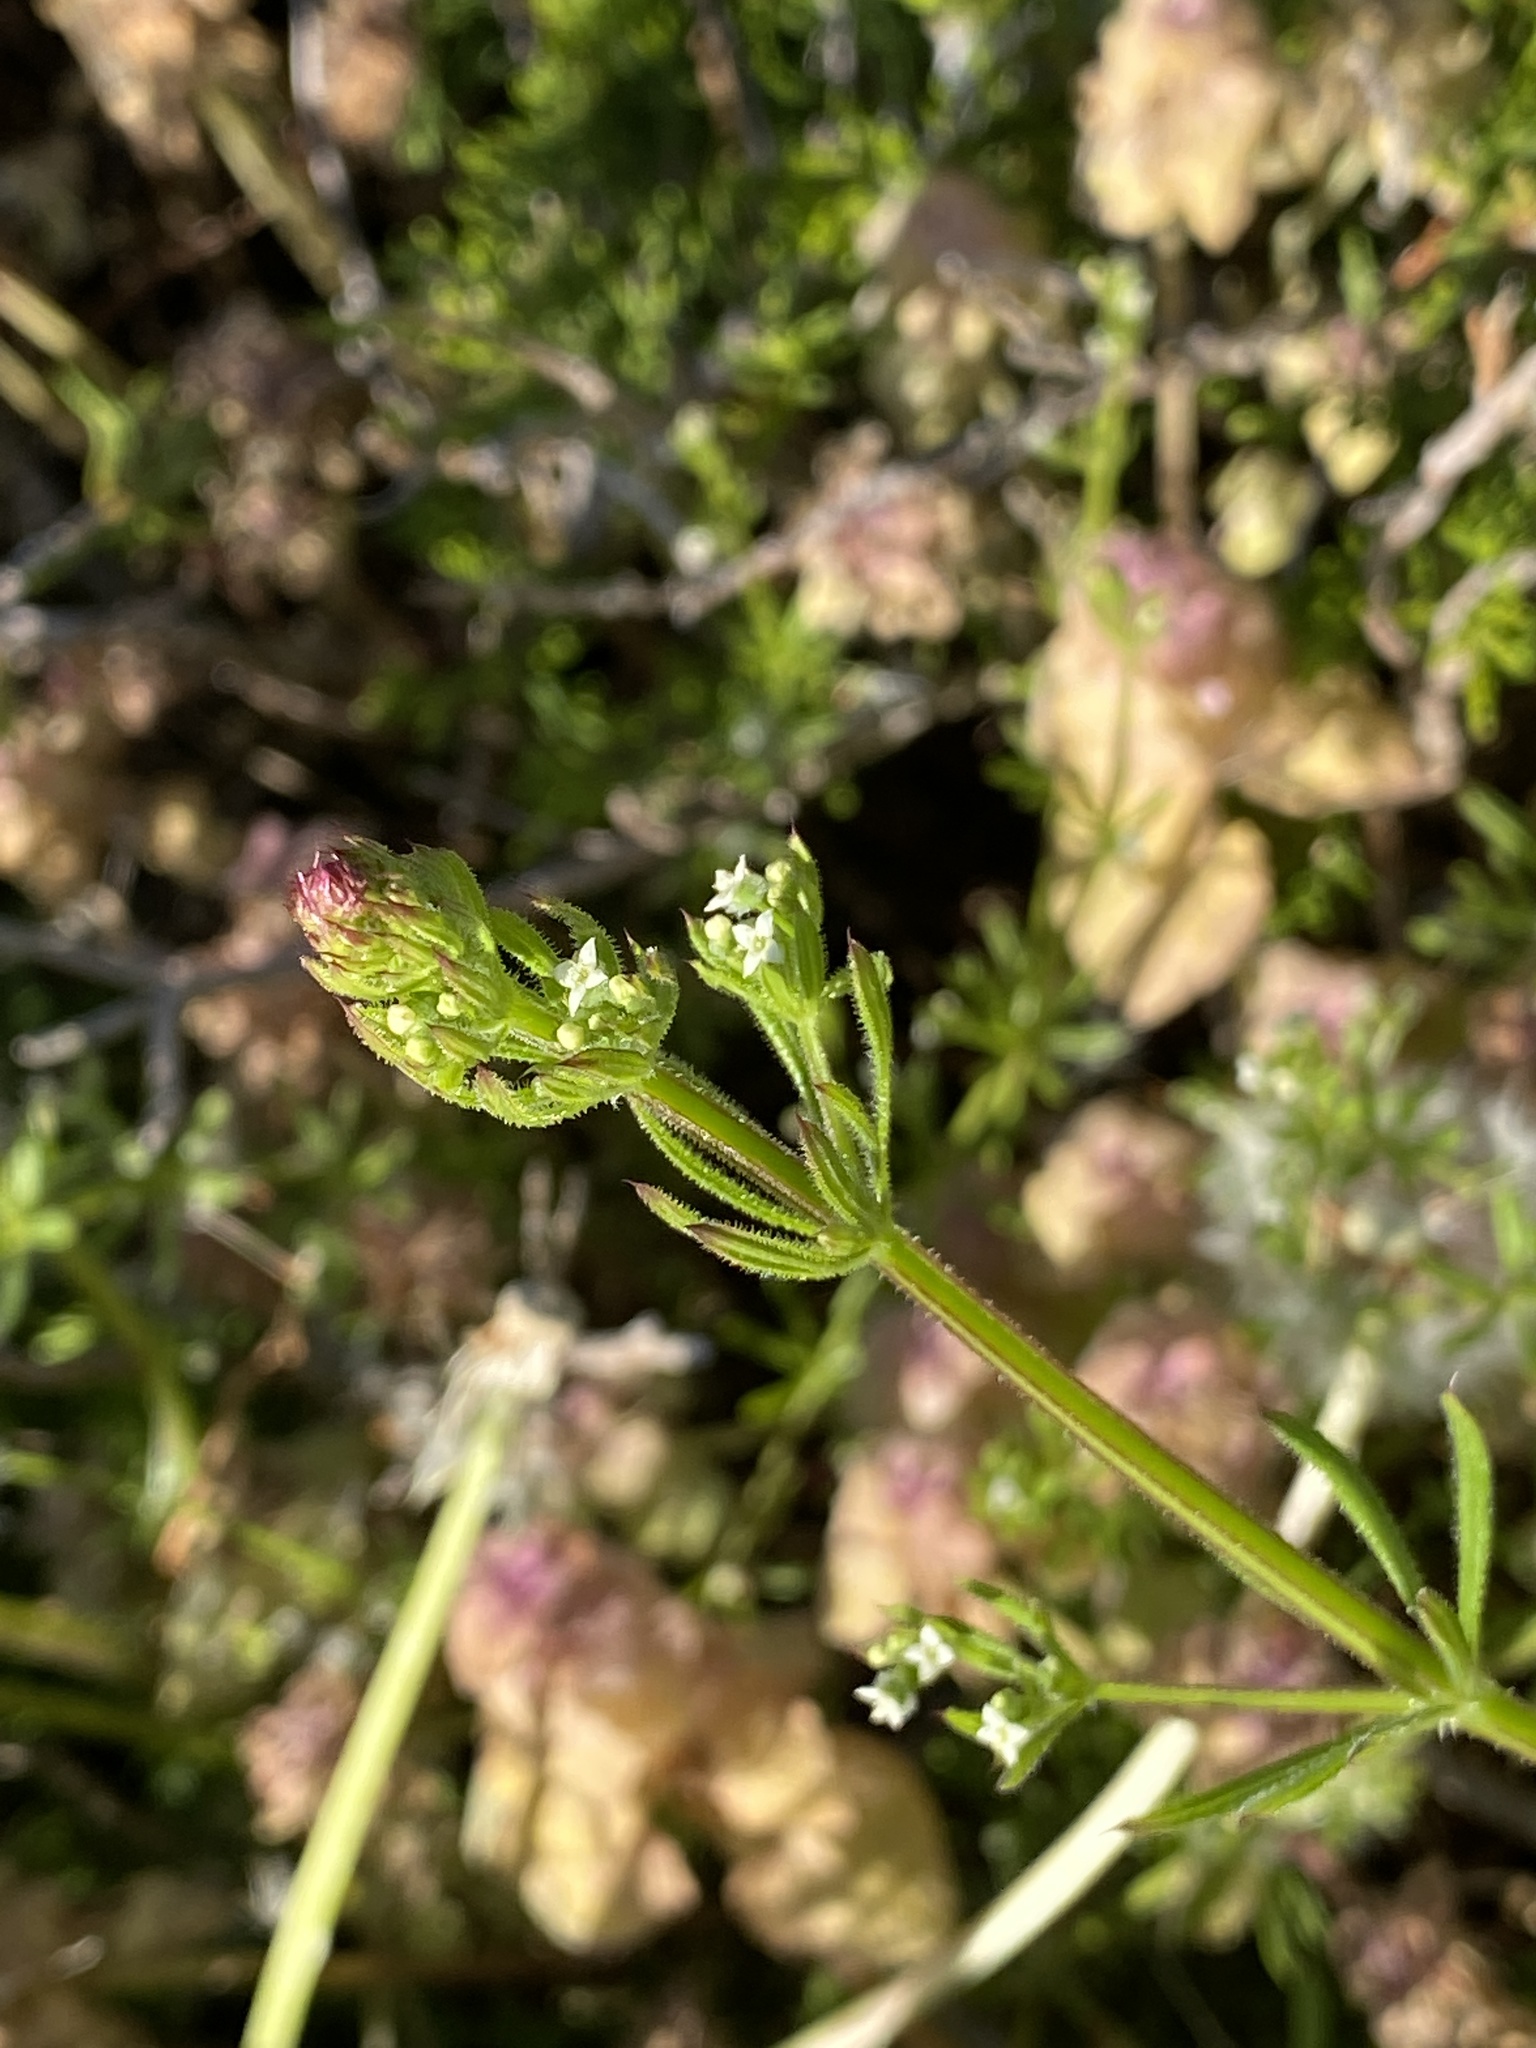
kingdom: Plantae
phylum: Tracheophyta
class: Magnoliopsida
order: Gentianales
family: Rubiaceae
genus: Galium
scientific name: Galium aparine
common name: Cleavers
